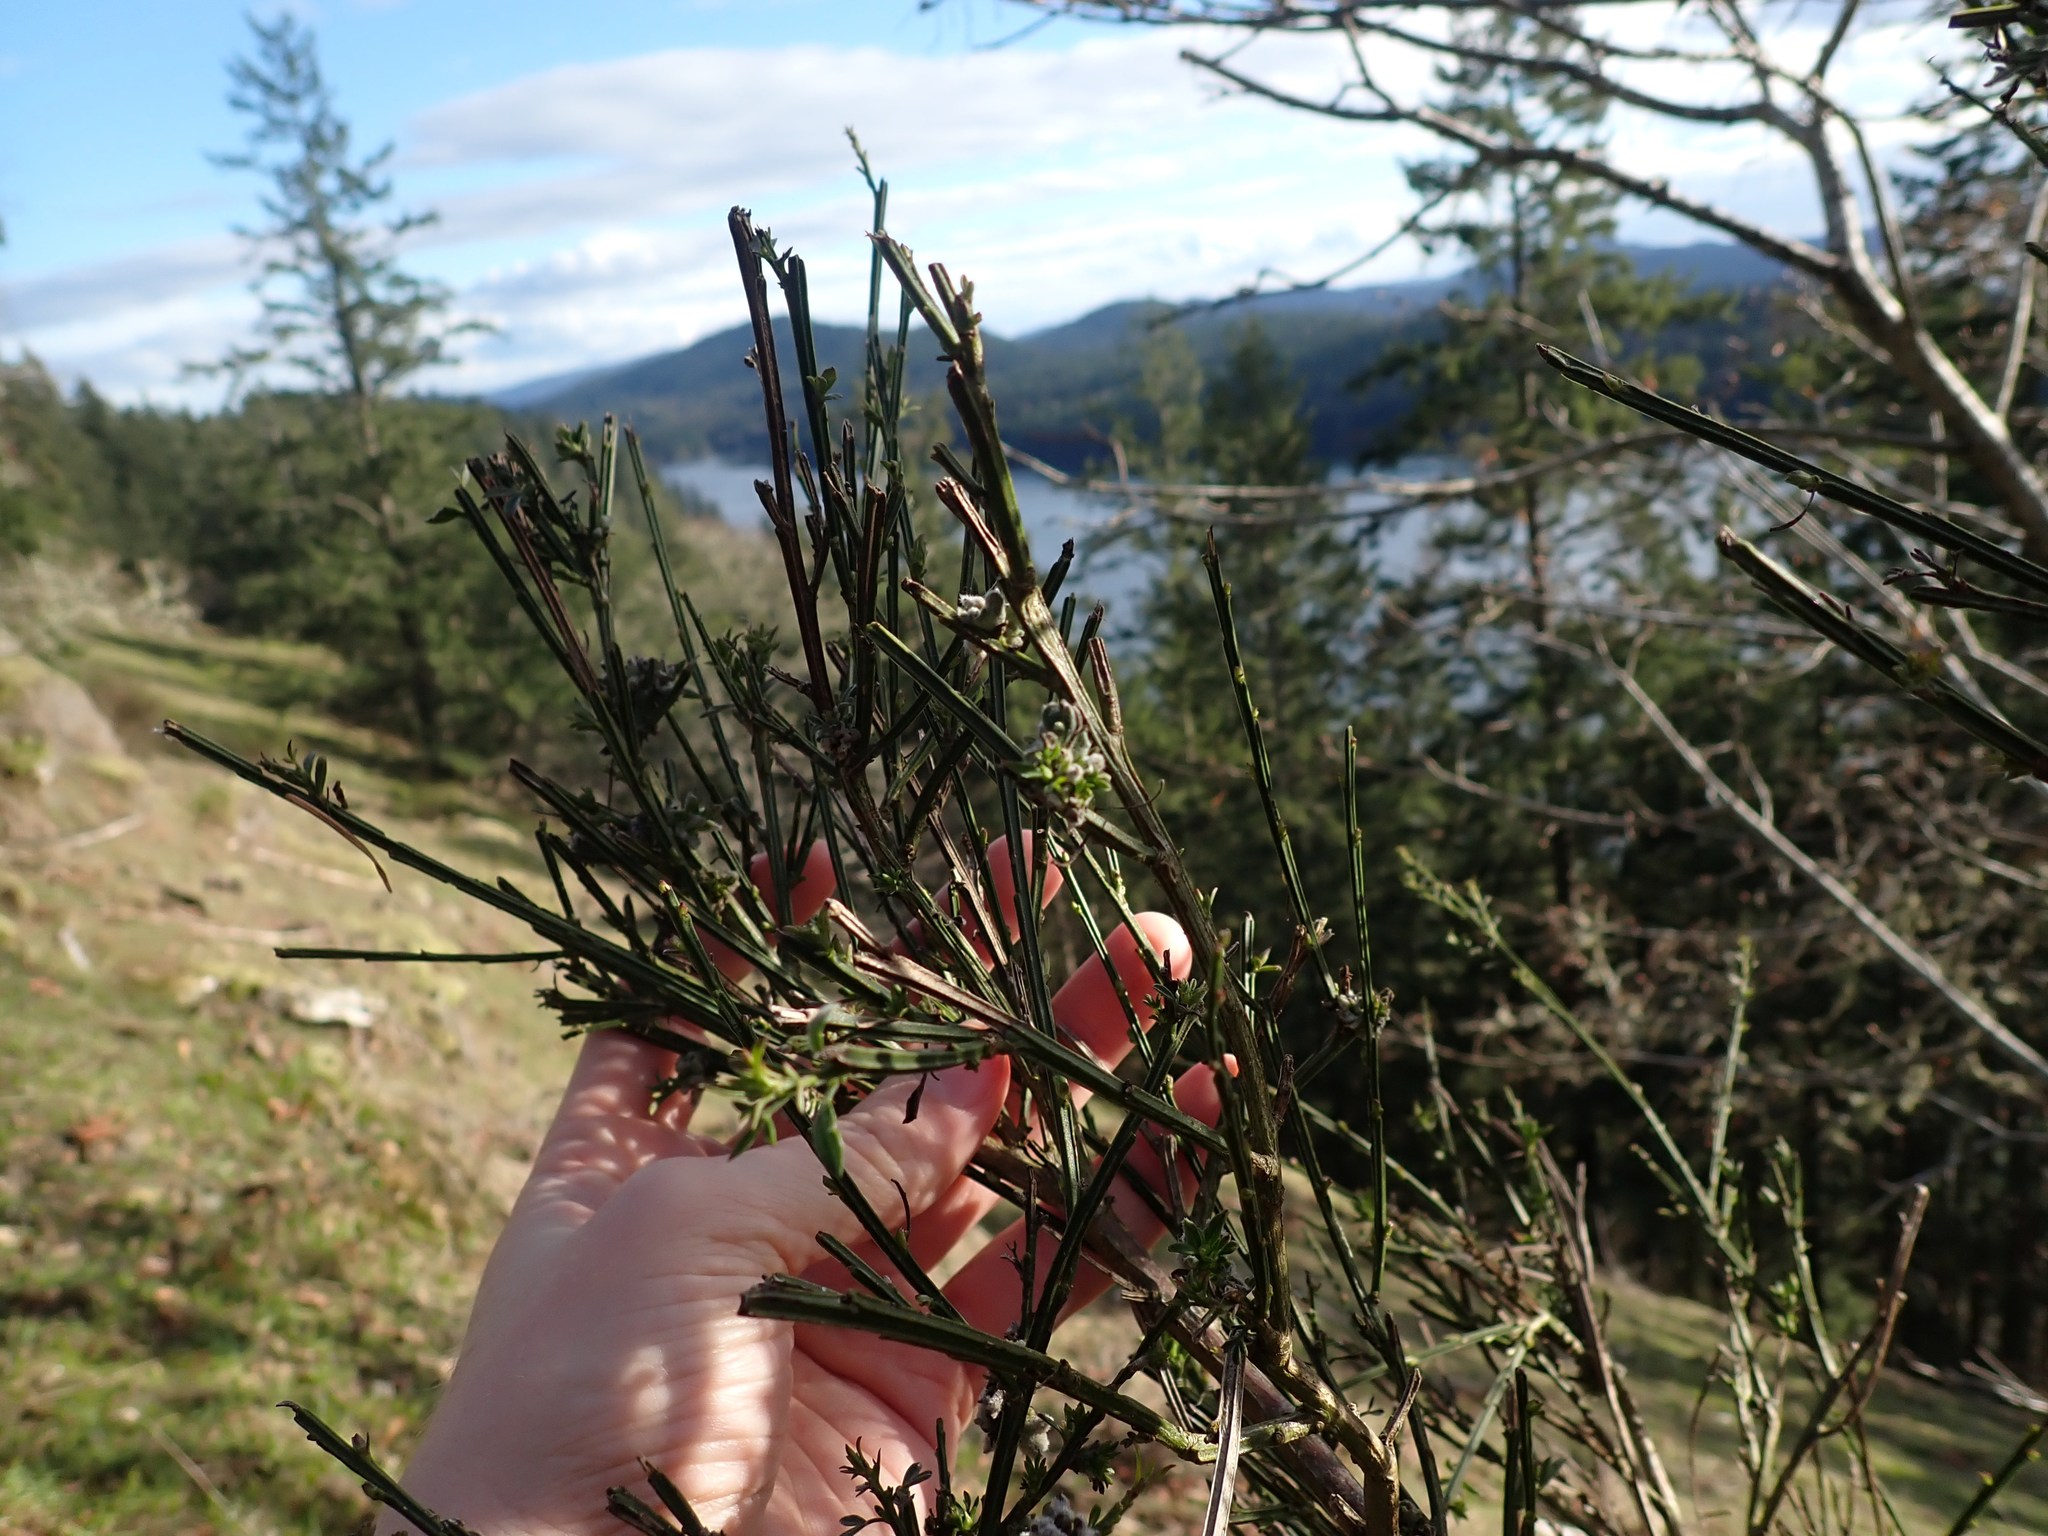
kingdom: Plantae
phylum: Tracheophyta
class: Magnoliopsida
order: Fabales
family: Fabaceae
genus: Cytisus
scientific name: Cytisus scoparius
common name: Scotch broom
